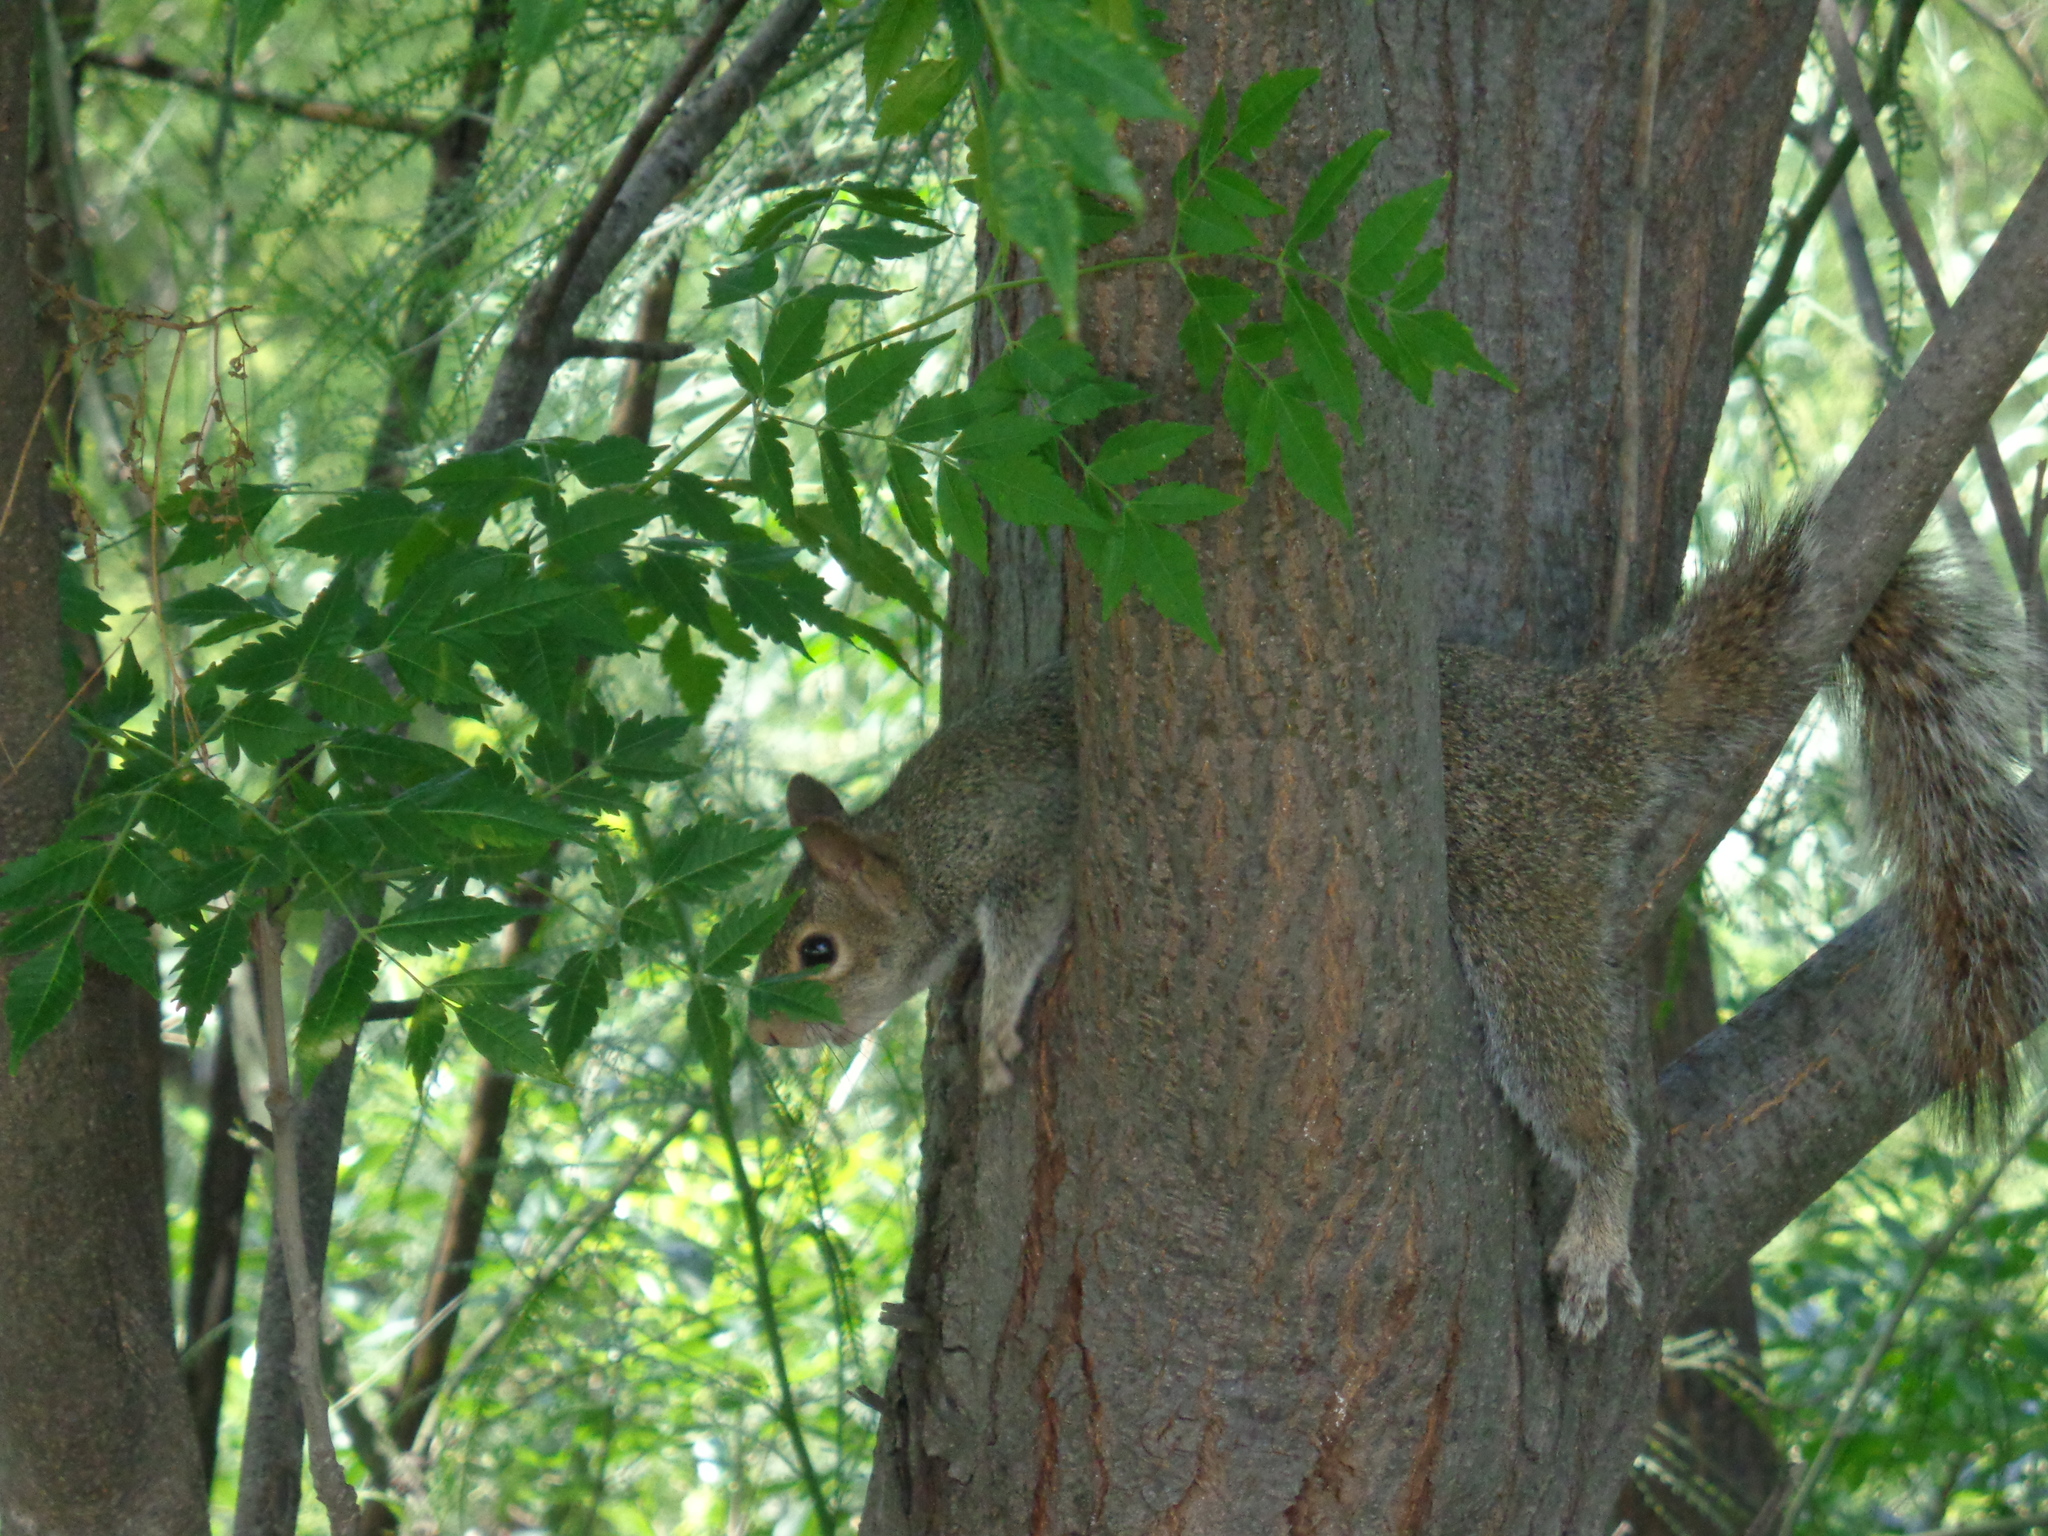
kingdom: Animalia
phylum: Chordata
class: Mammalia
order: Rodentia
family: Sciuridae
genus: Sciurus
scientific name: Sciurus alleni
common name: Allen's squirrel
